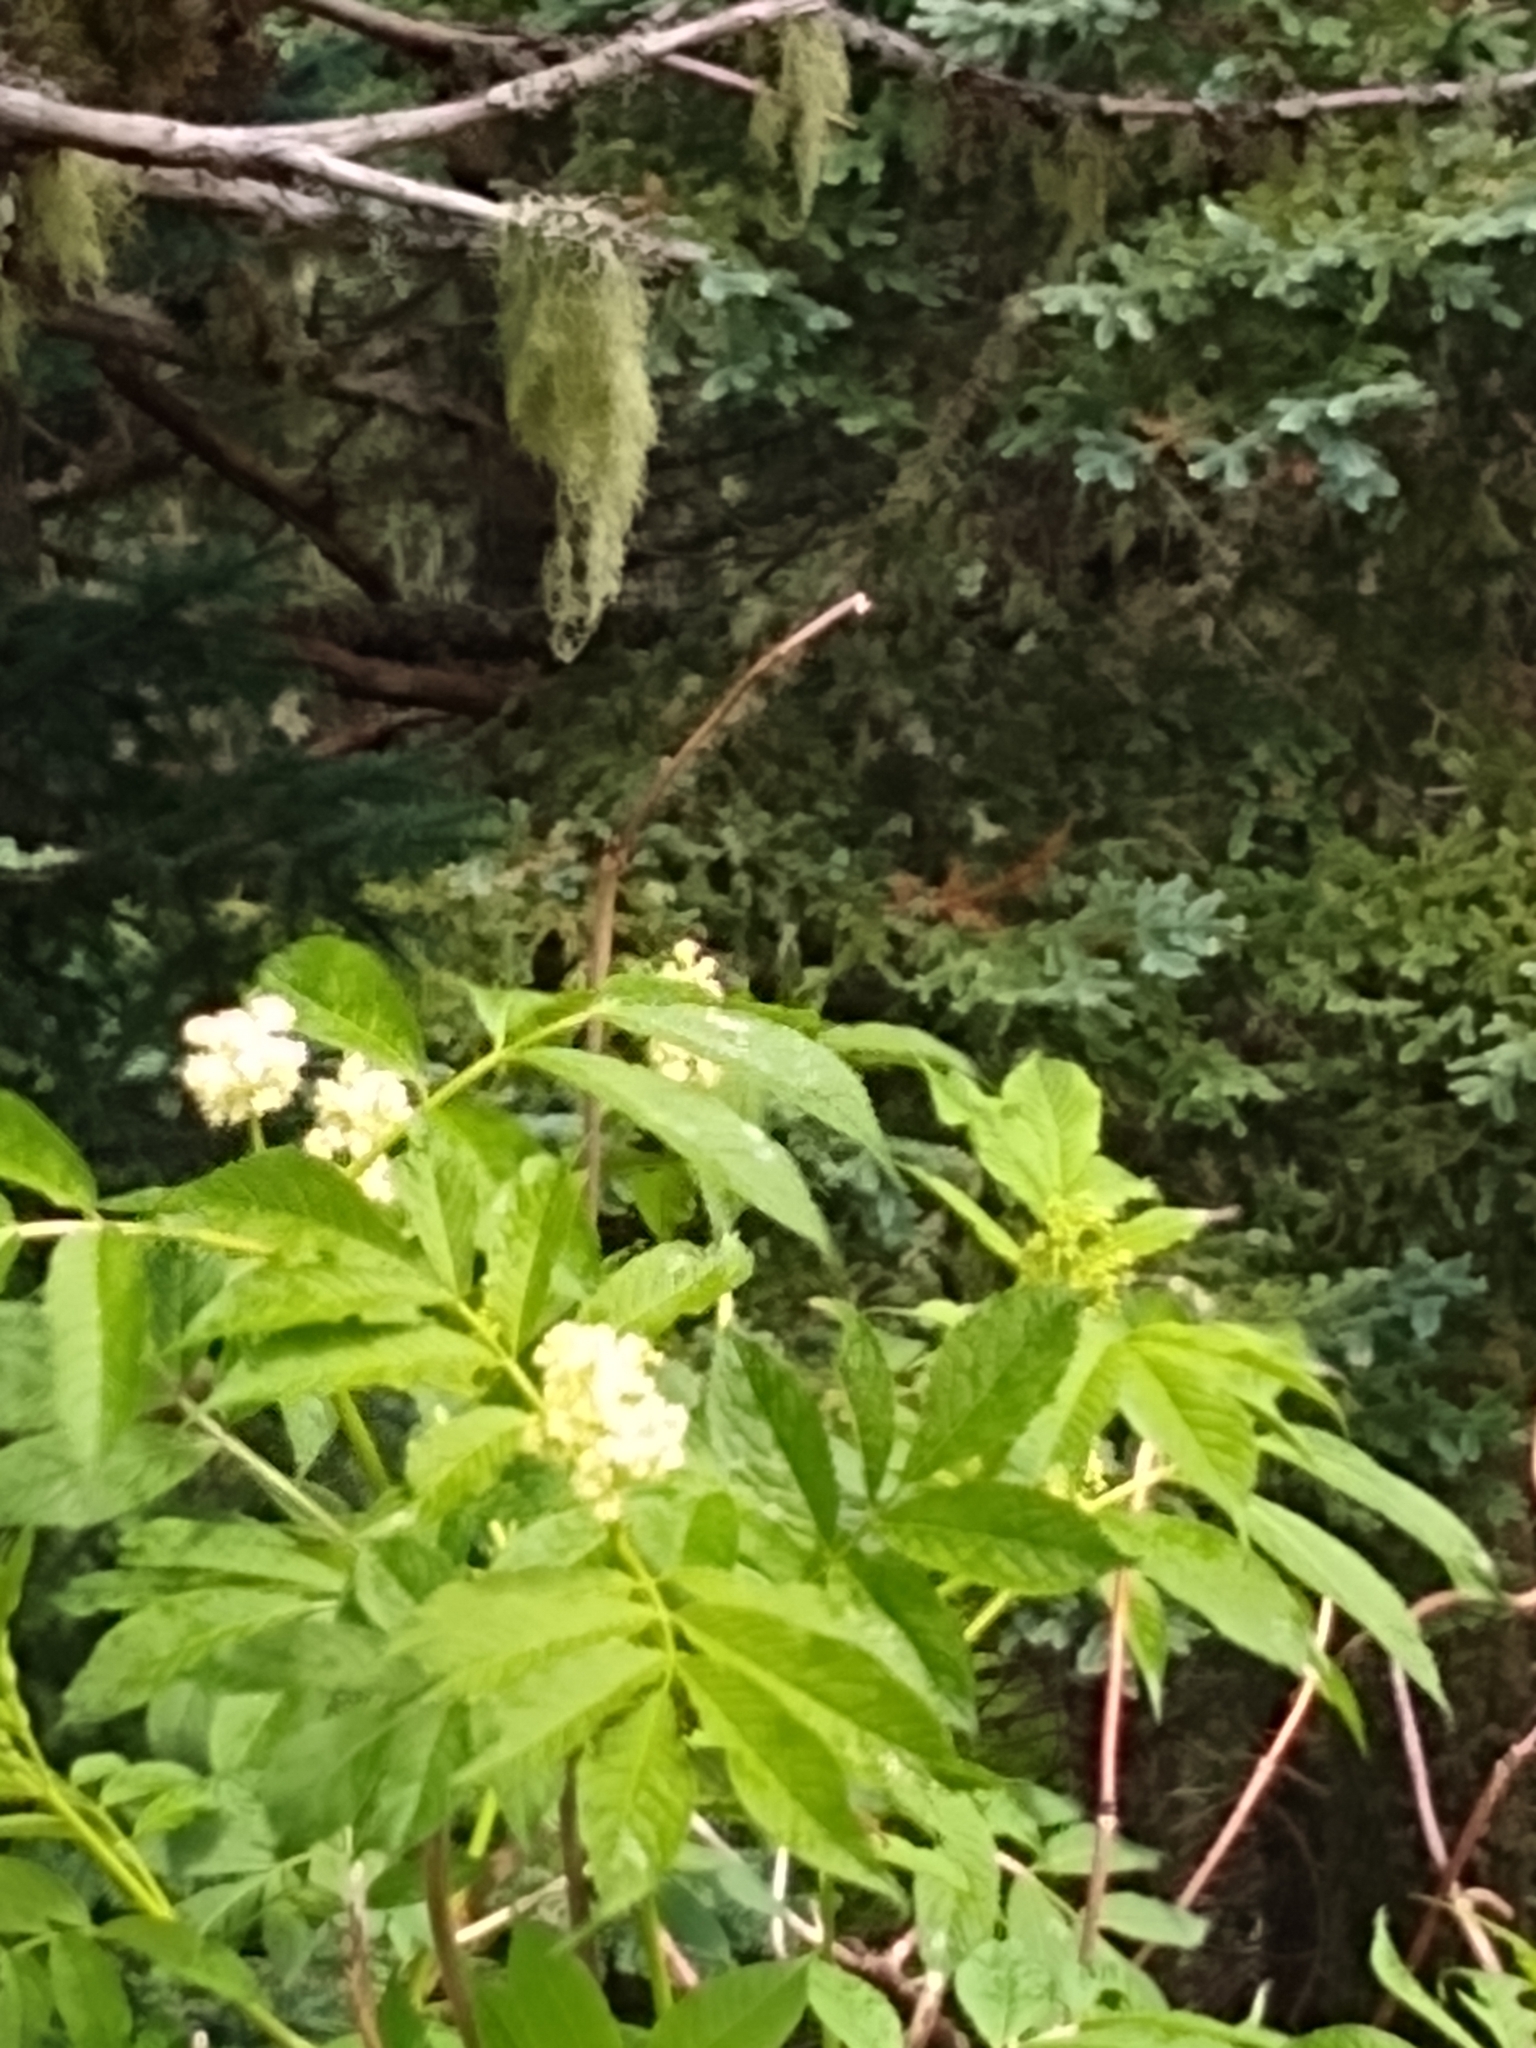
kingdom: Plantae
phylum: Tracheophyta
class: Magnoliopsida
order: Dipsacales
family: Viburnaceae
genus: Sambucus
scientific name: Sambucus racemosa
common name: Red-berried elder
